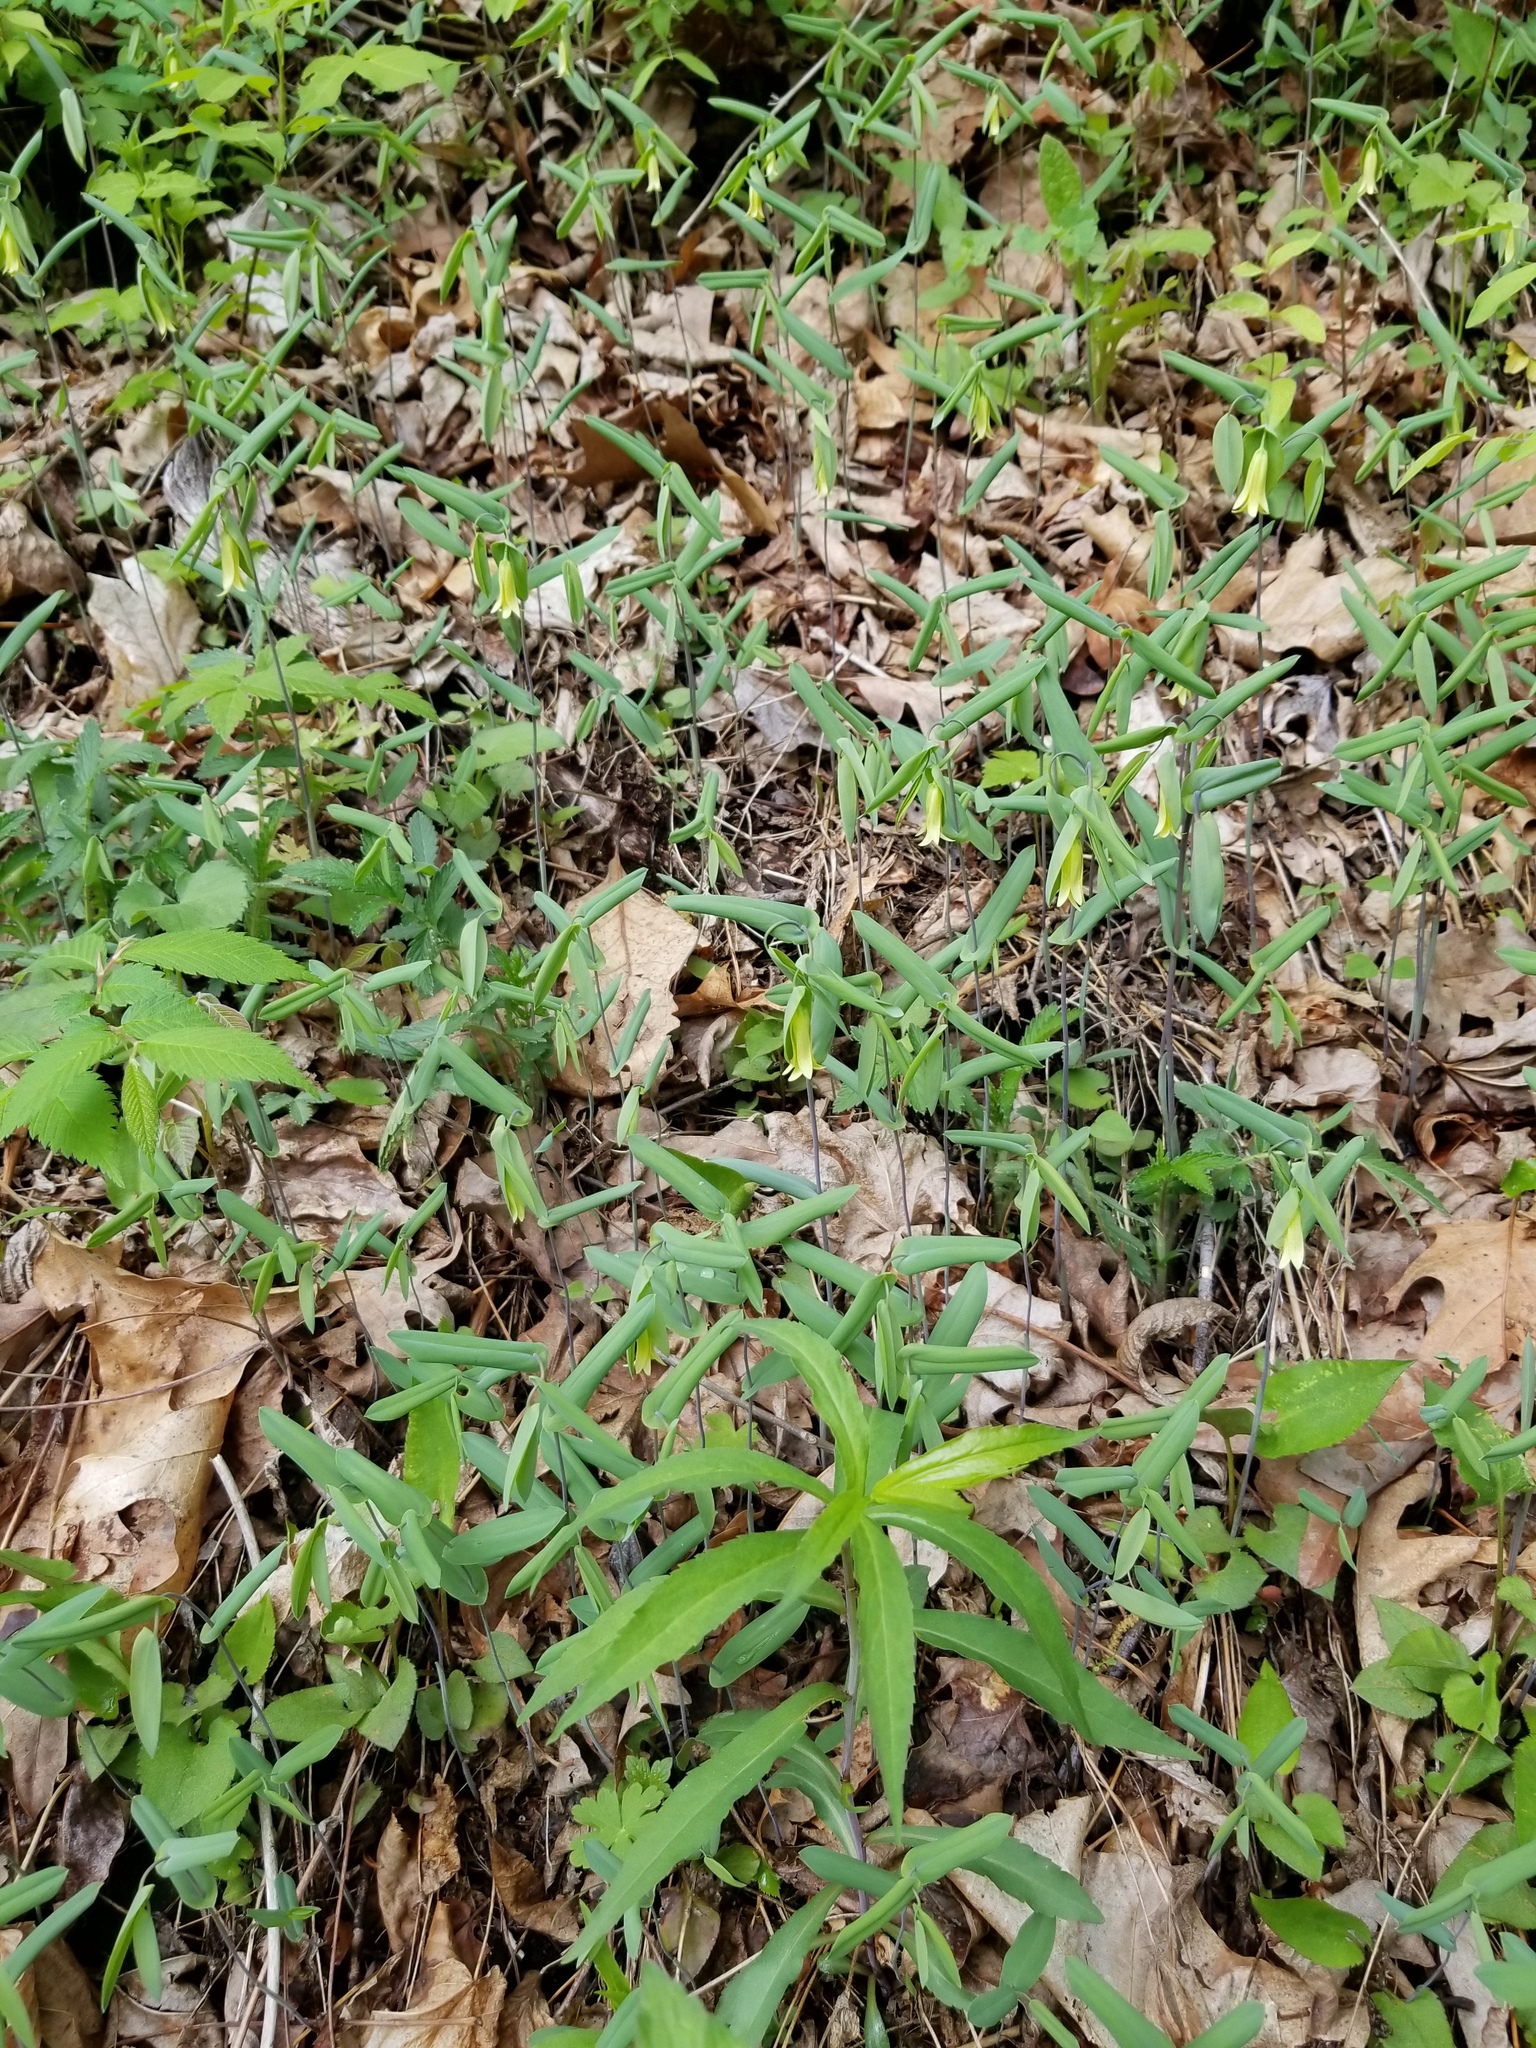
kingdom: Plantae
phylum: Tracheophyta
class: Liliopsida
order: Liliales
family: Colchicaceae
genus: Uvularia
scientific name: Uvularia perfoliata
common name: Perfoliate bellwort
